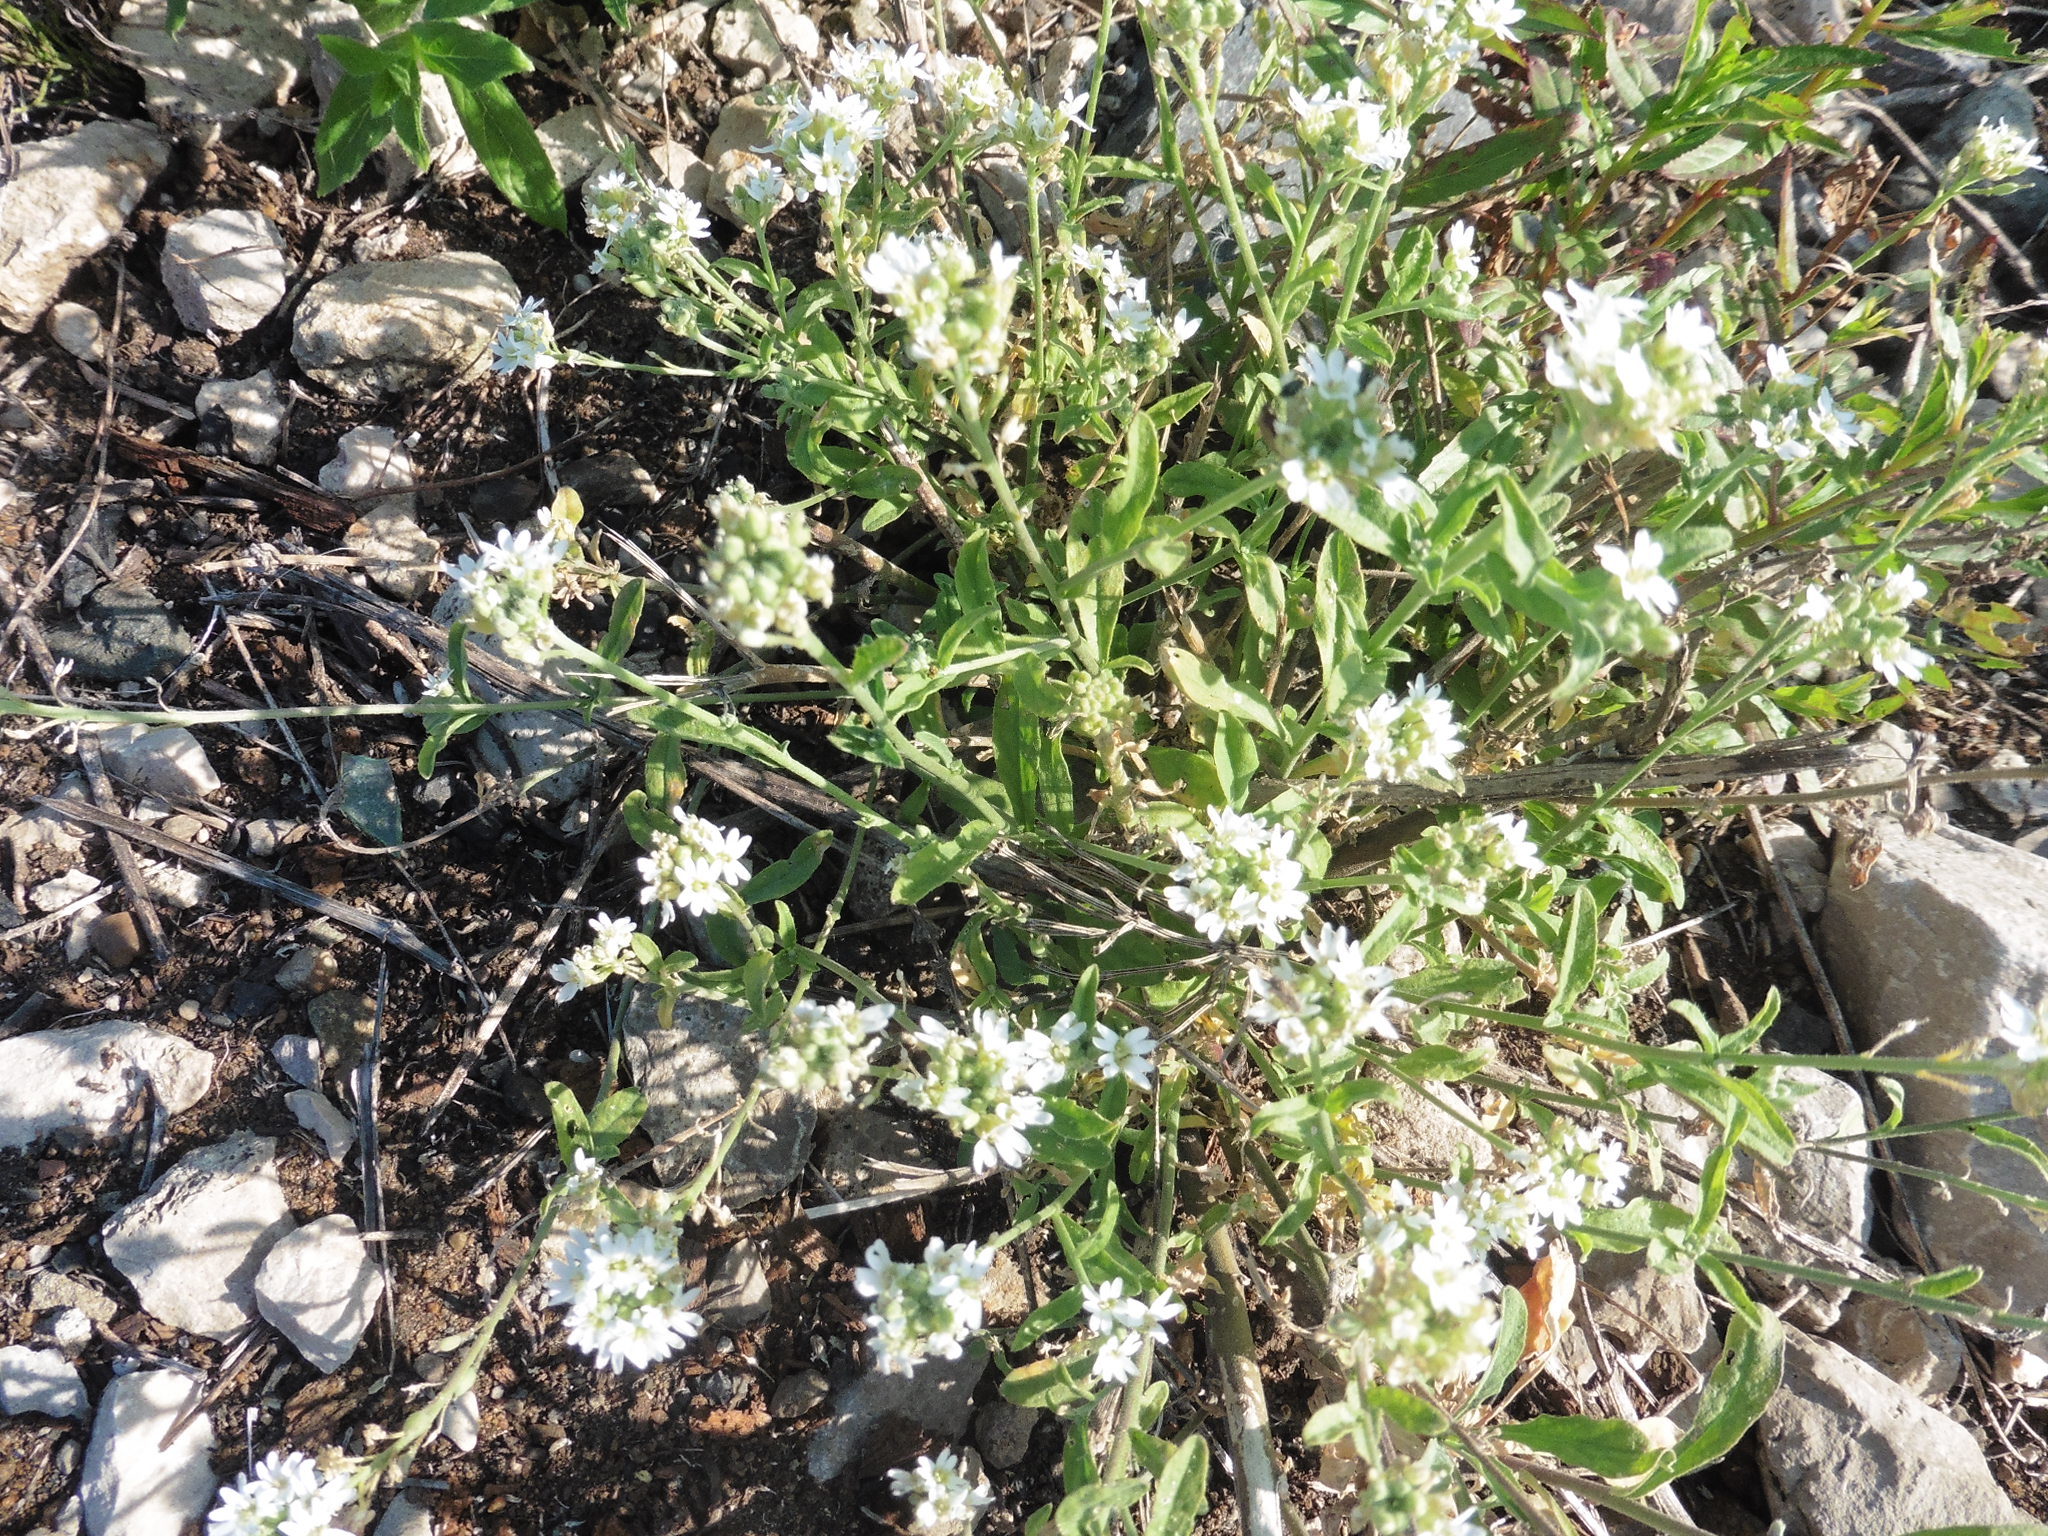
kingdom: Plantae
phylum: Tracheophyta
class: Magnoliopsida
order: Brassicales
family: Brassicaceae
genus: Berteroa
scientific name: Berteroa incana
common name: Hoary alison
